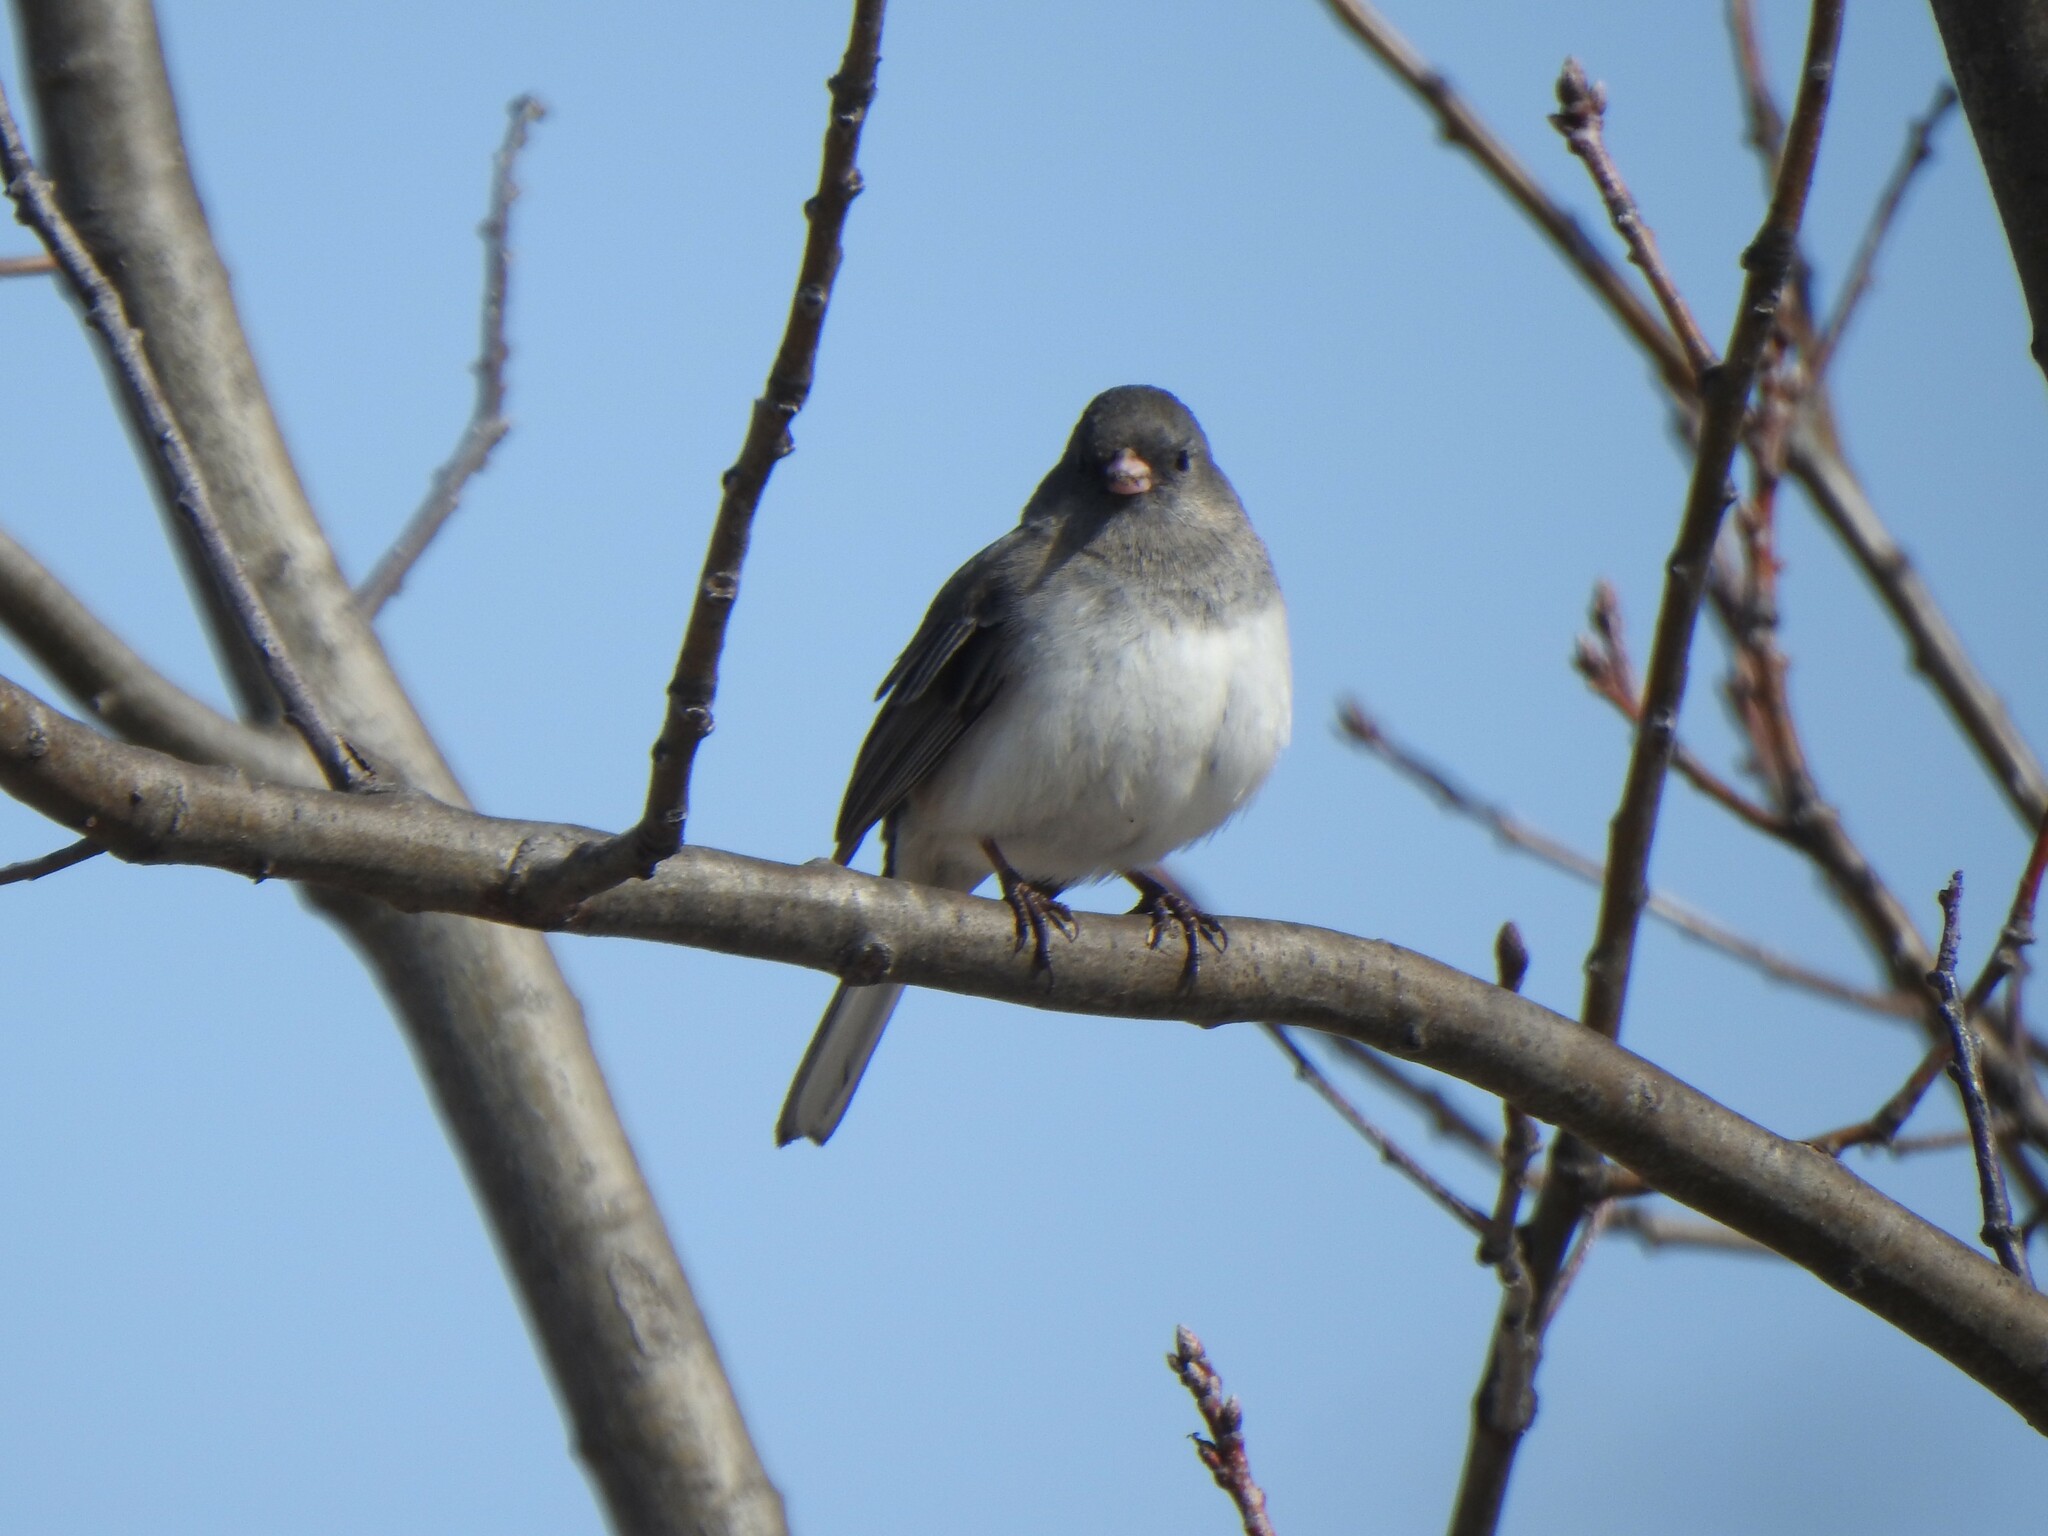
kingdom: Animalia
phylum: Chordata
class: Aves
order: Passeriformes
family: Passerellidae
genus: Junco
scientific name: Junco hyemalis
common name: Dark-eyed junco
